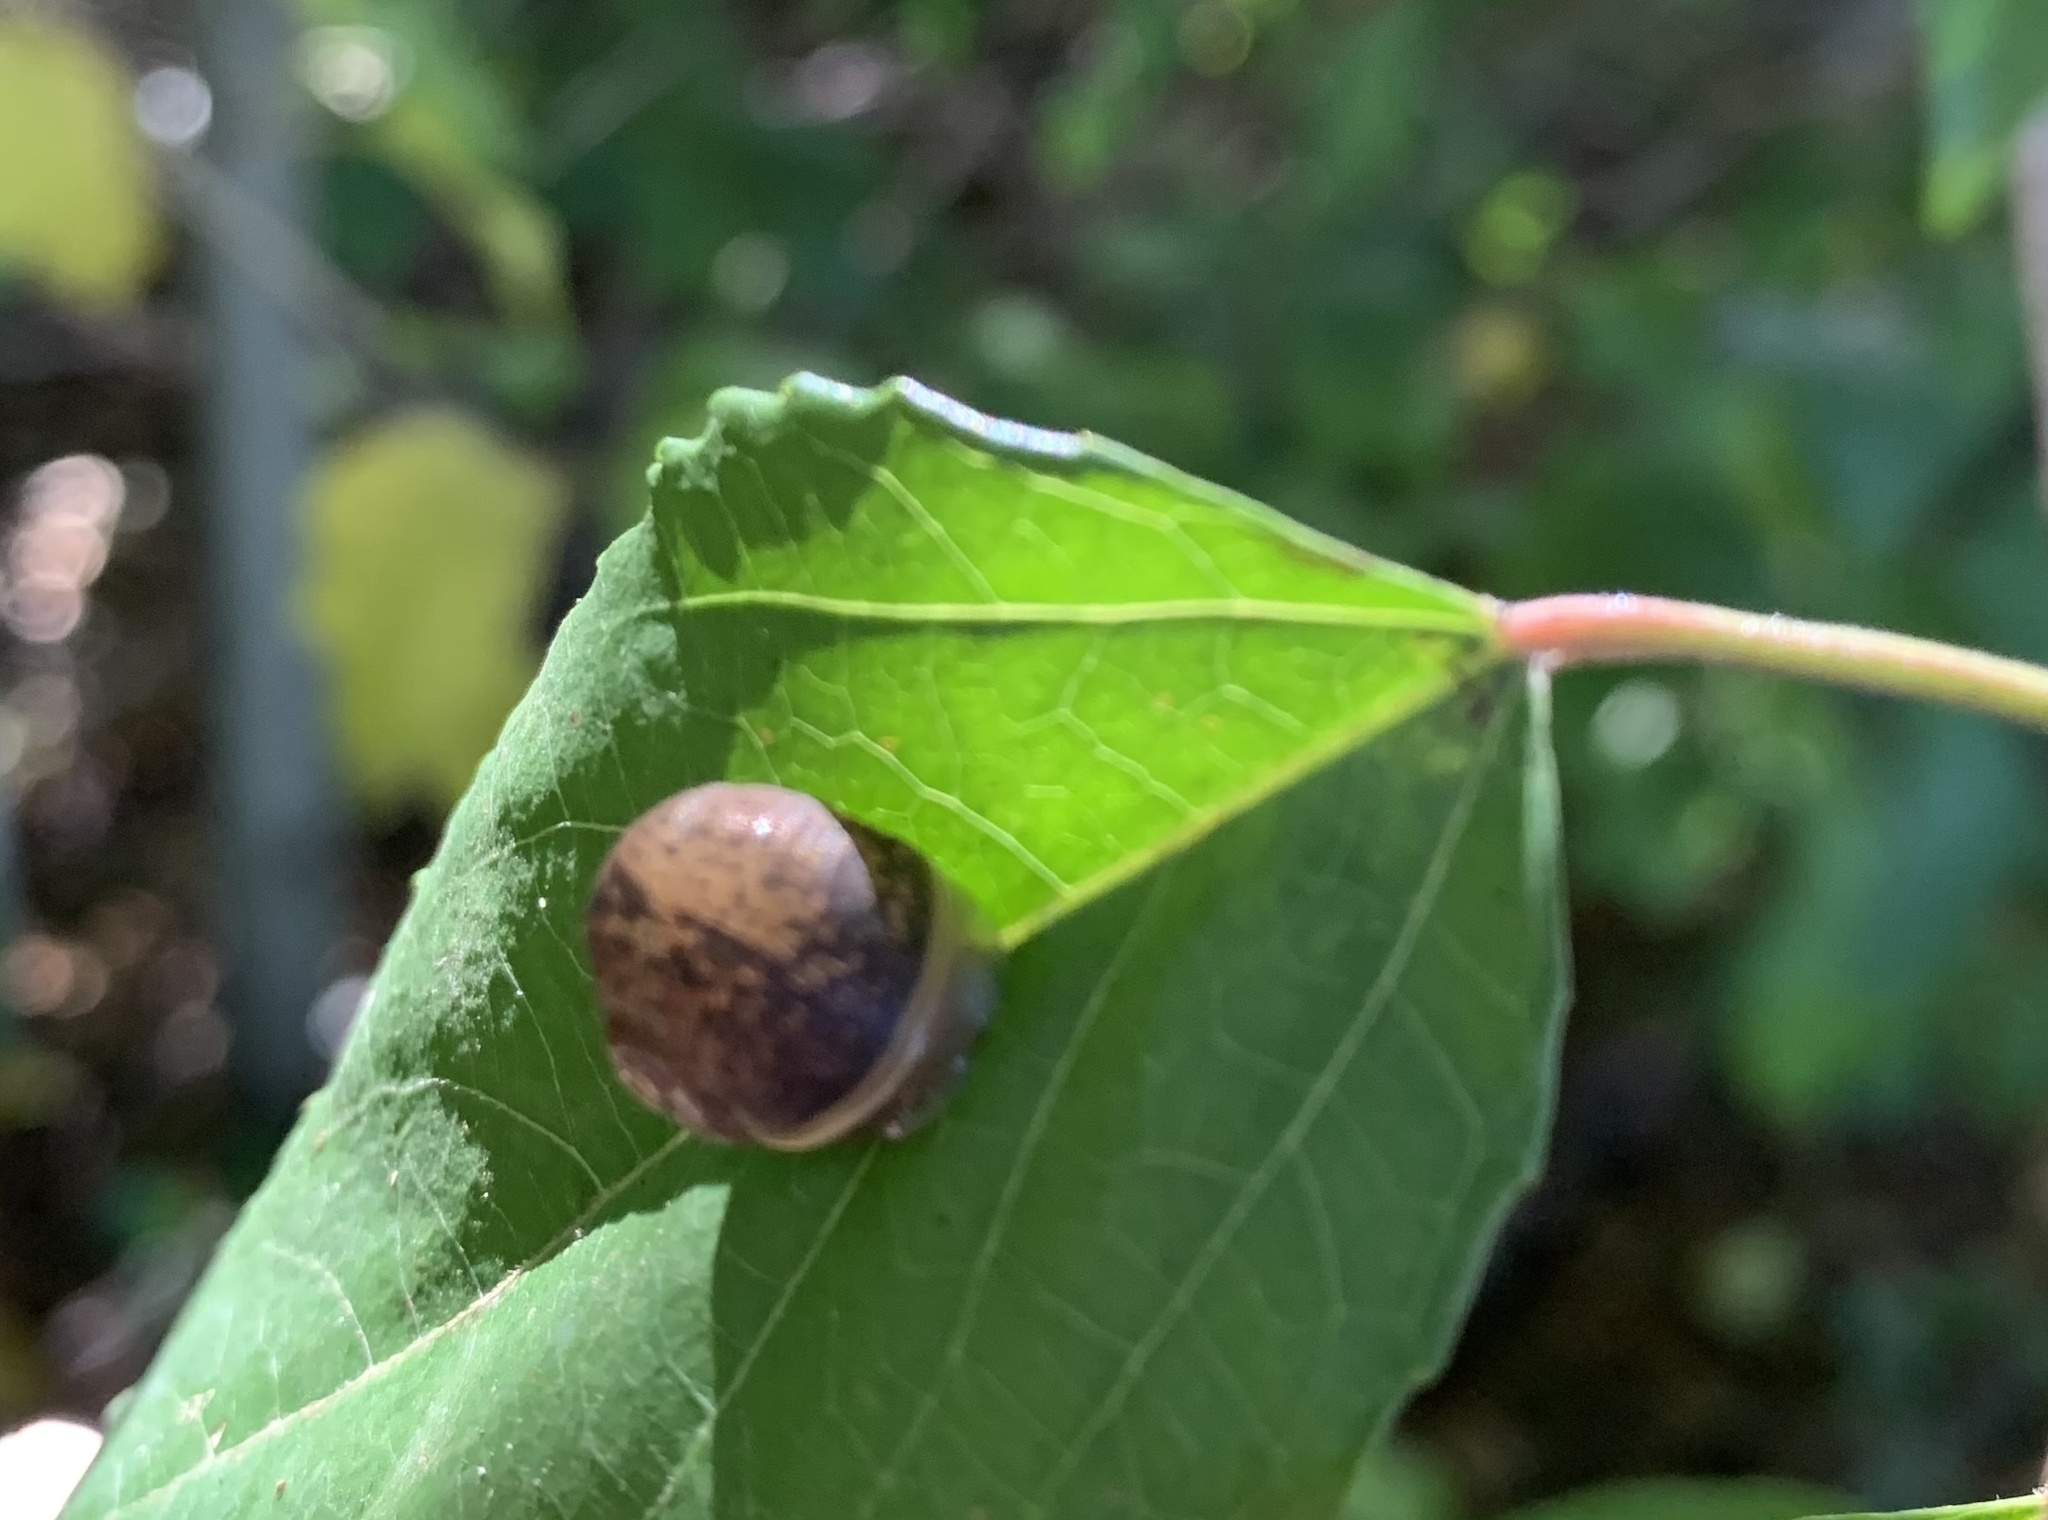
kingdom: Animalia
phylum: Mollusca
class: Gastropoda
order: Stylommatophora
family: Helicidae
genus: Cornu
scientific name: Cornu aspersum
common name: Brown garden snail
